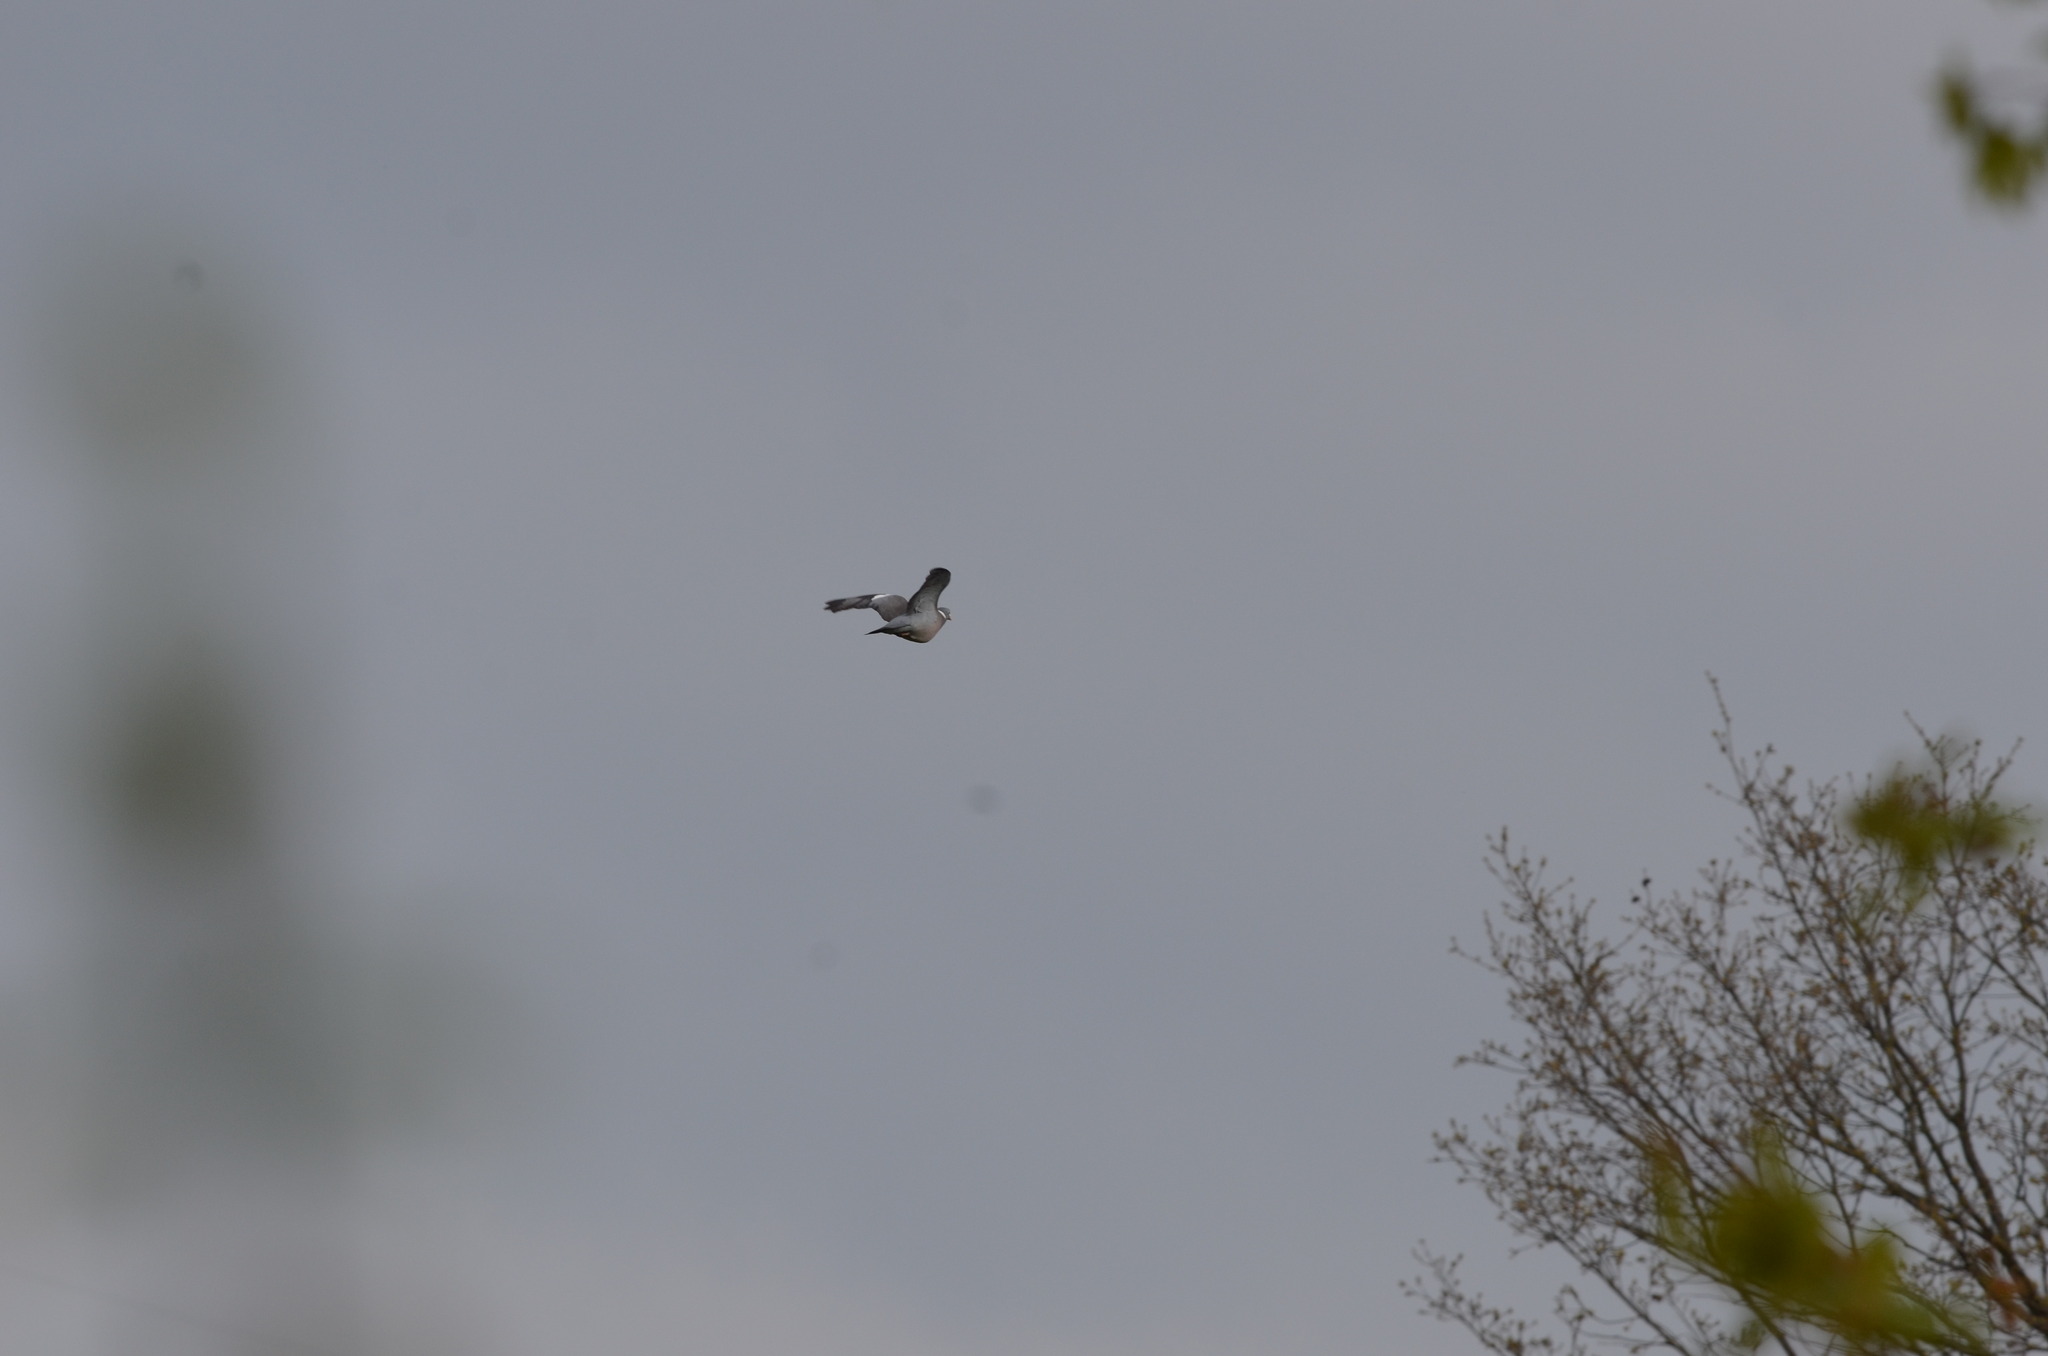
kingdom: Animalia
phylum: Chordata
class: Aves
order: Columbiformes
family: Columbidae
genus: Columba
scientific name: Columba palumbus
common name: Common wood pigeon
